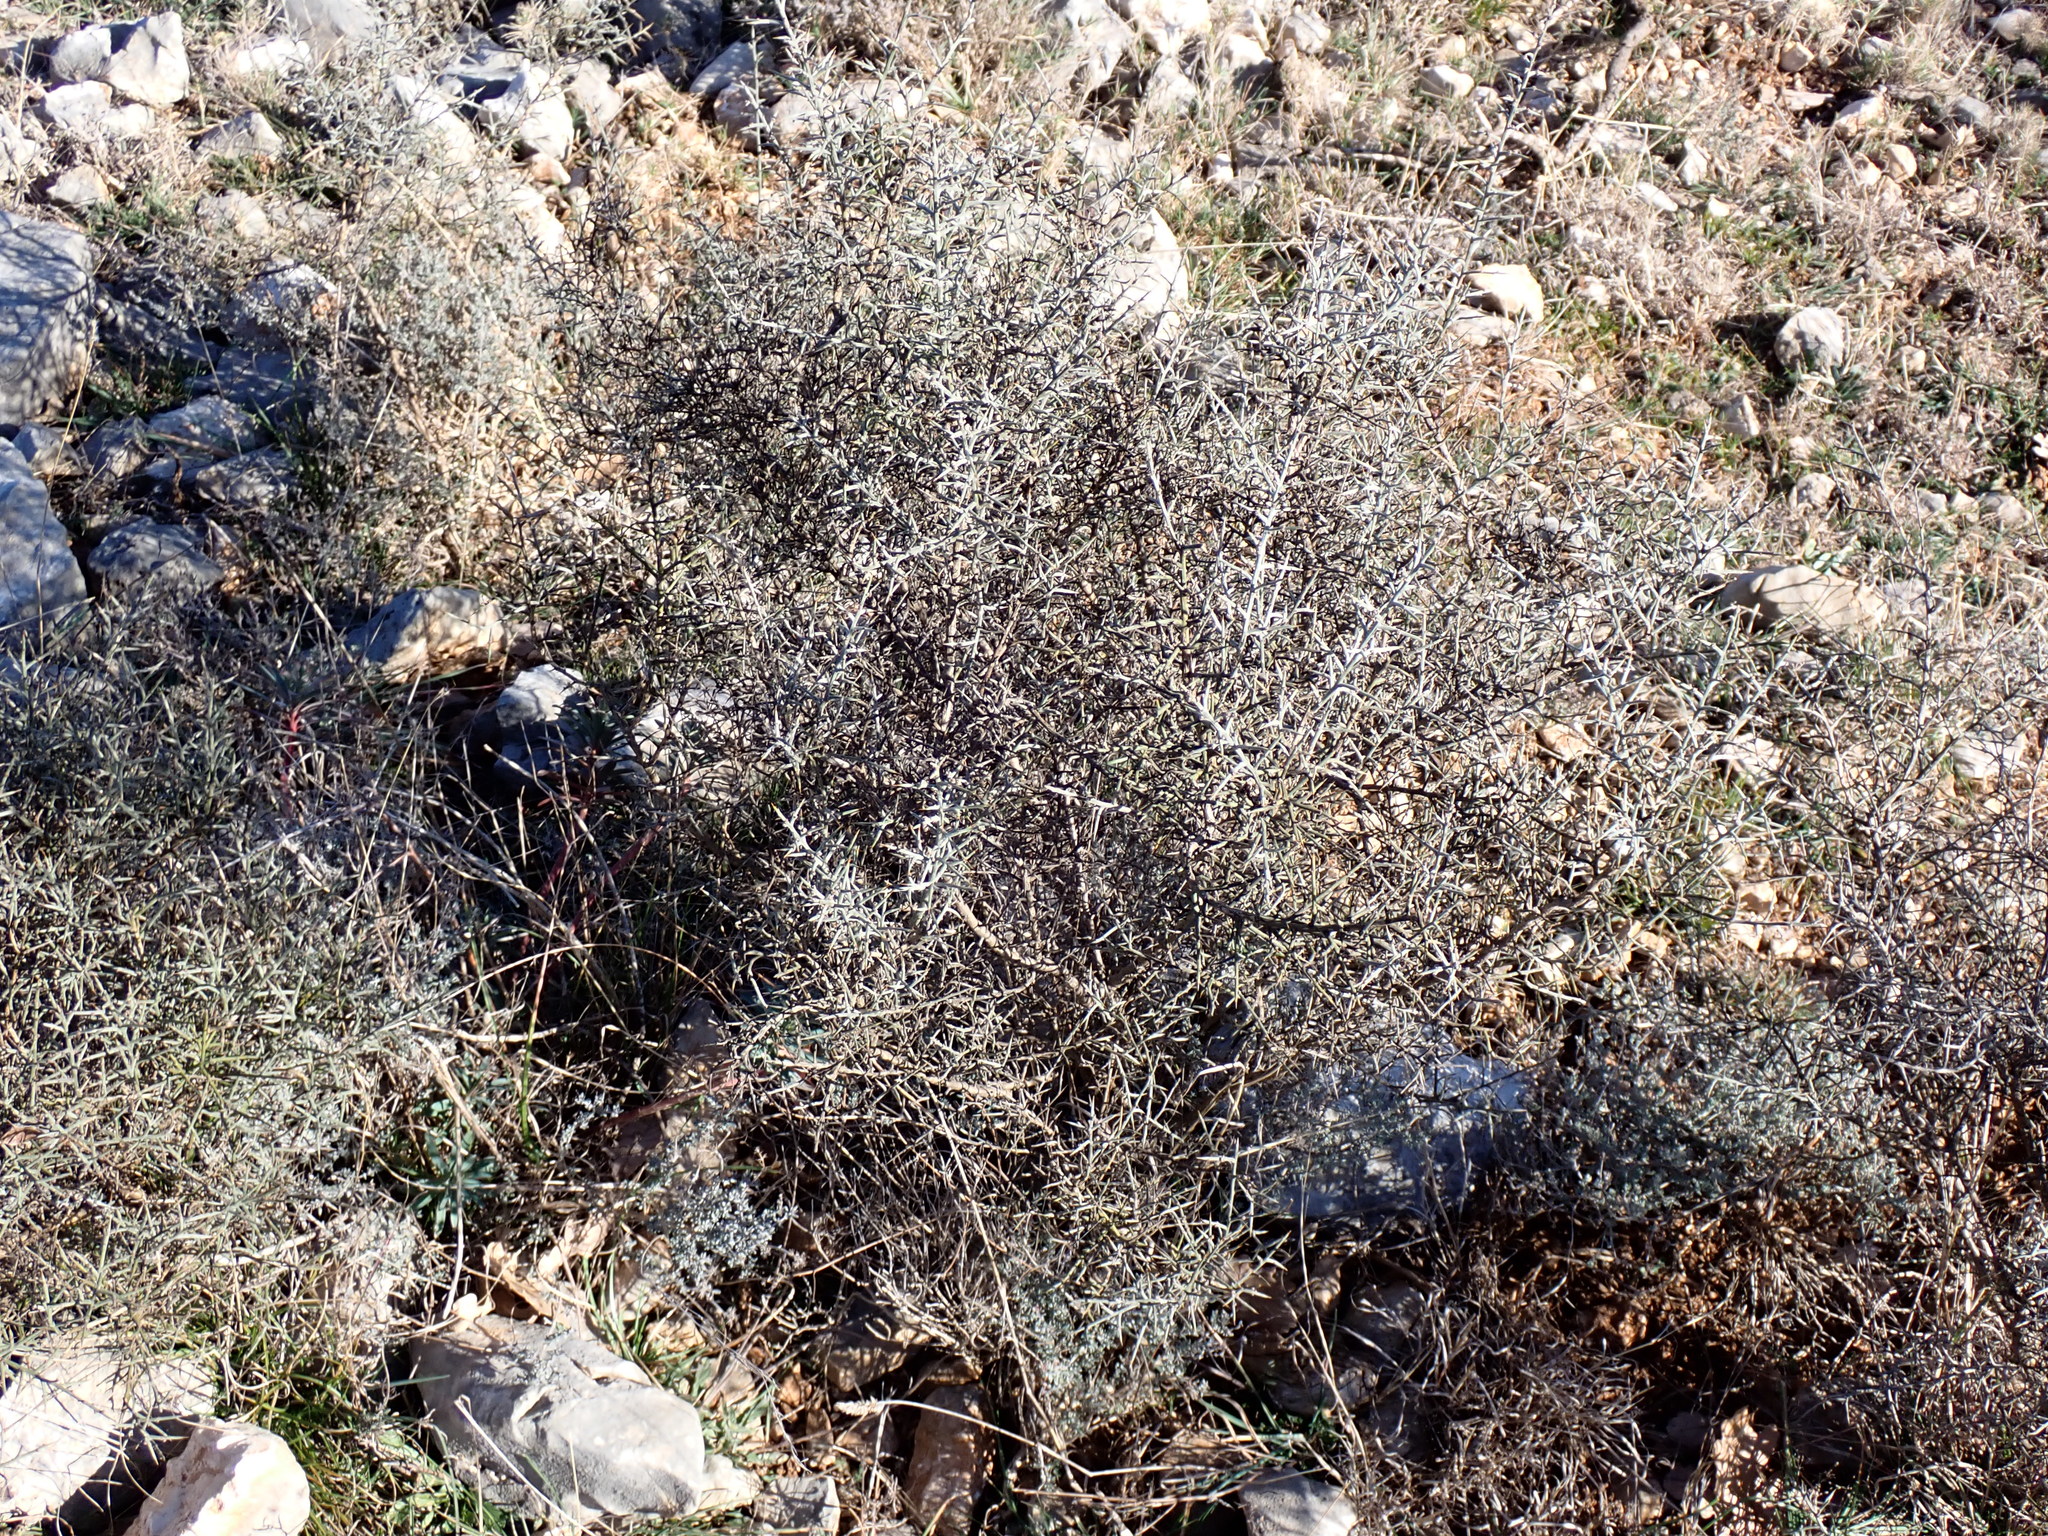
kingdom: Plantae
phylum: Tracheophyta
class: Magnoliopsida
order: Fabales
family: Fabaceae
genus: Genista
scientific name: Genista scorpius
